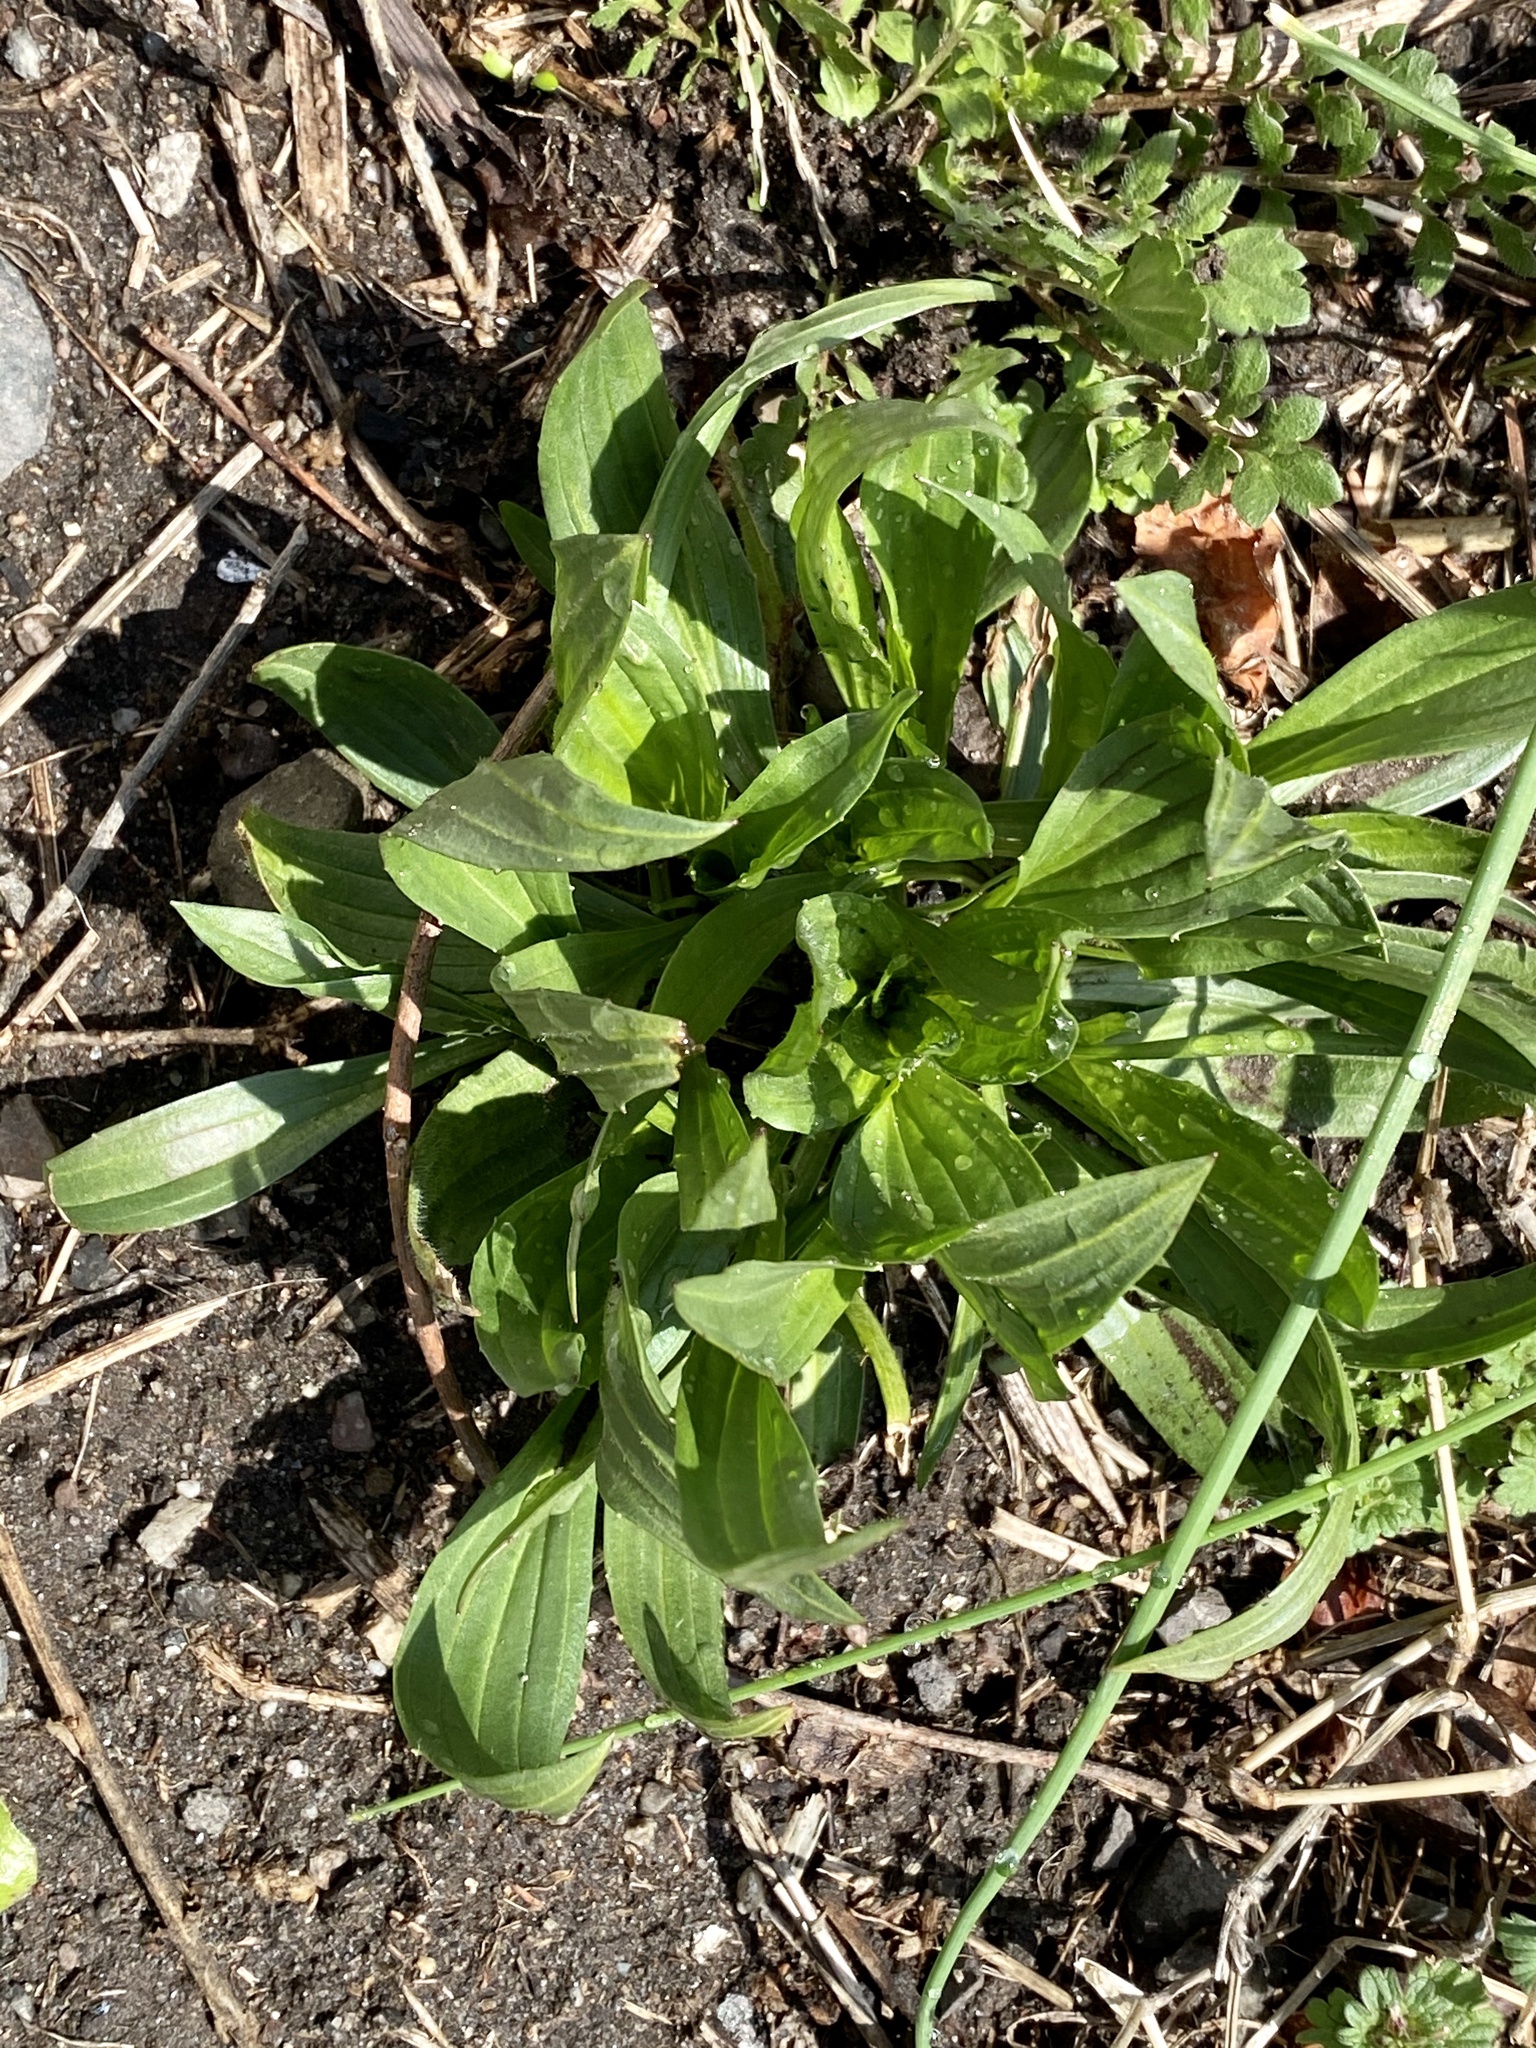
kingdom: Plantae
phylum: Tracheophyta
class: Magnoliopsida
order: Lamiales
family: Plantaginaceae
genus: Plantago
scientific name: Plantago lanceolata
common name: Ribwort plantain
